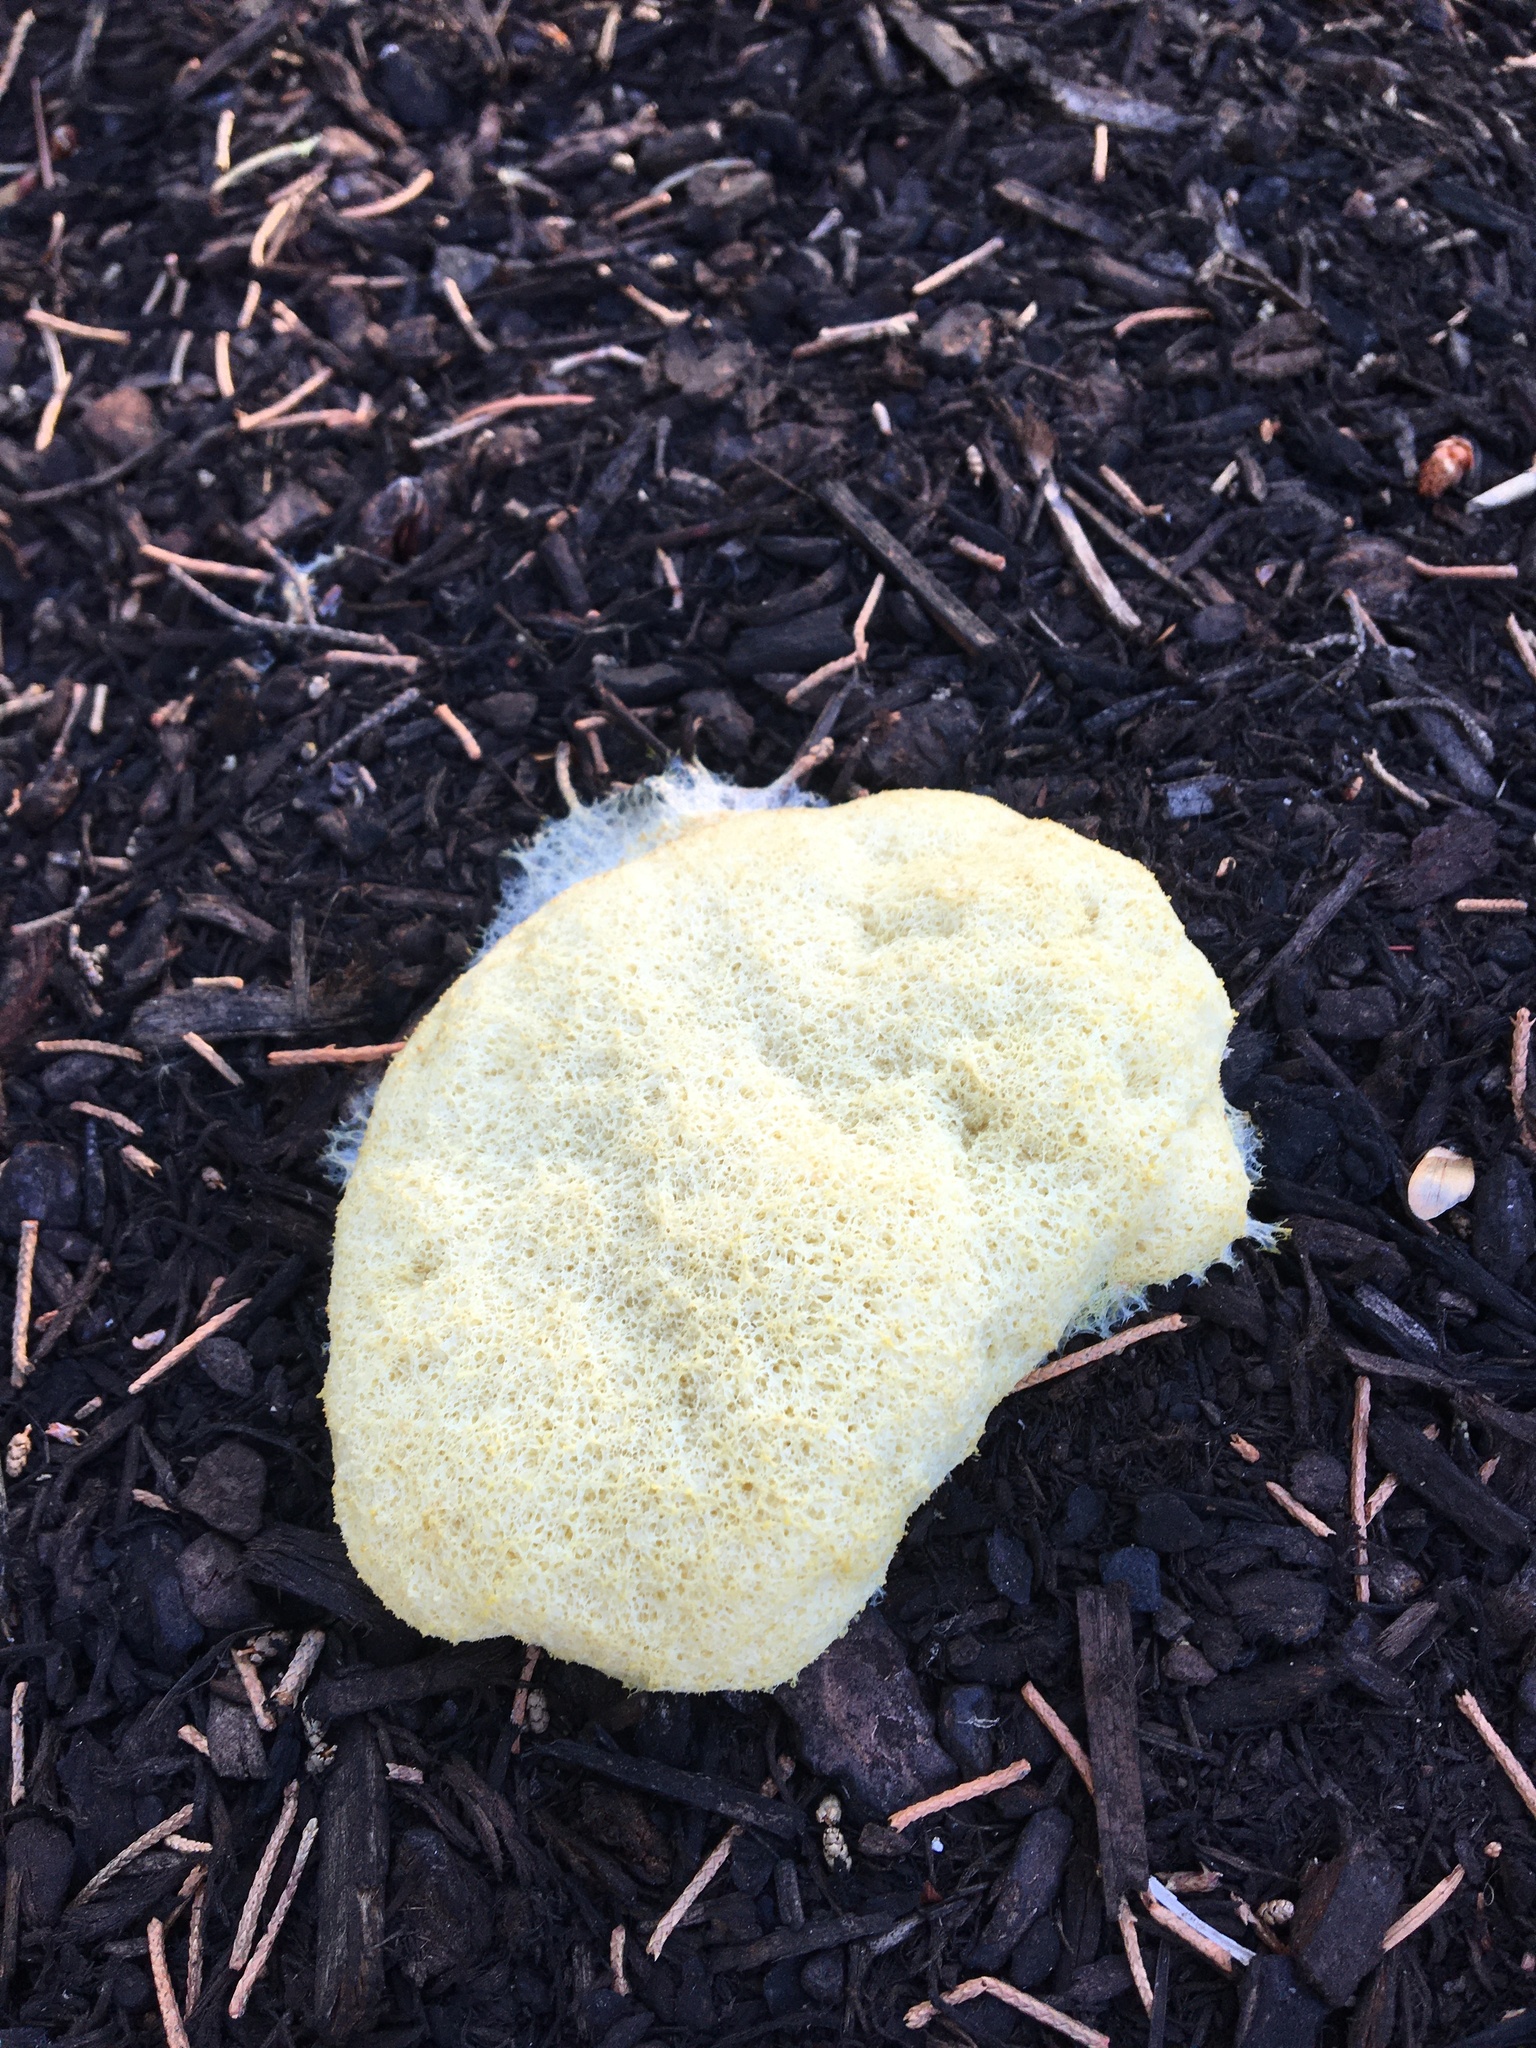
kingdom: Protozoa
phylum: Mycetozoa
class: Myxomycetes
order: Physarales
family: Physaraceae
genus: Fuligo
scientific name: Fuligo septica
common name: Dog vomit slime mold
